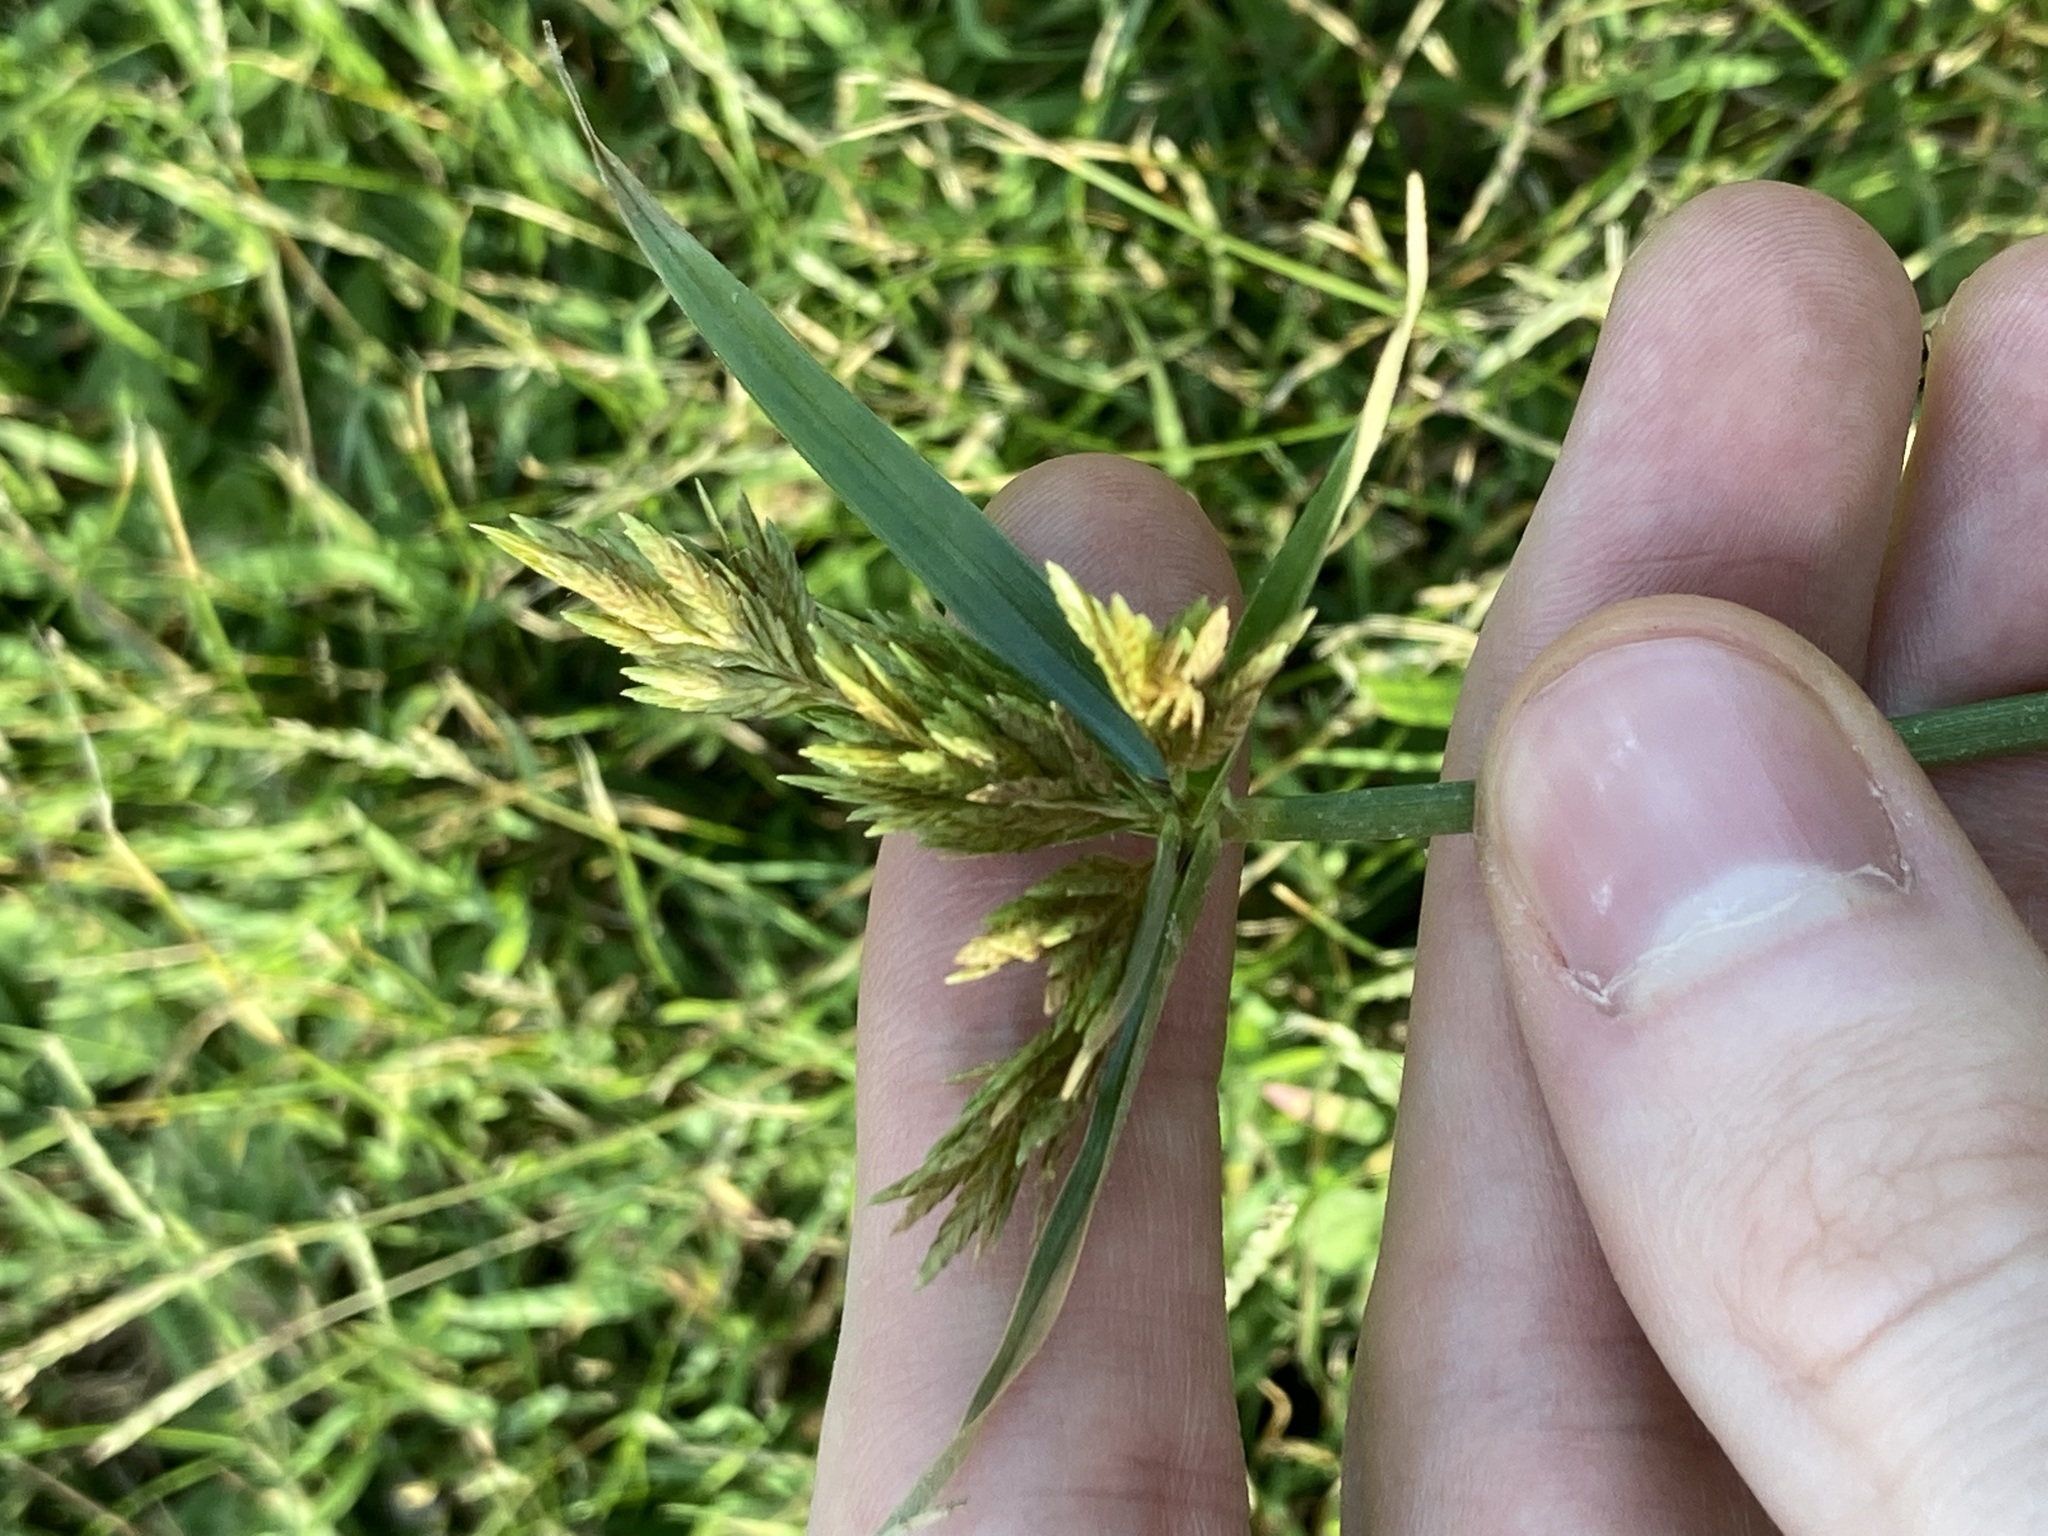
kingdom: Plantae
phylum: Tracheophyta
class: Liliopsida
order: Poales
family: Cyperaceae
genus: Cyperus
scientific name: Cyperus polystachyos
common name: Bunchy flat sedge
